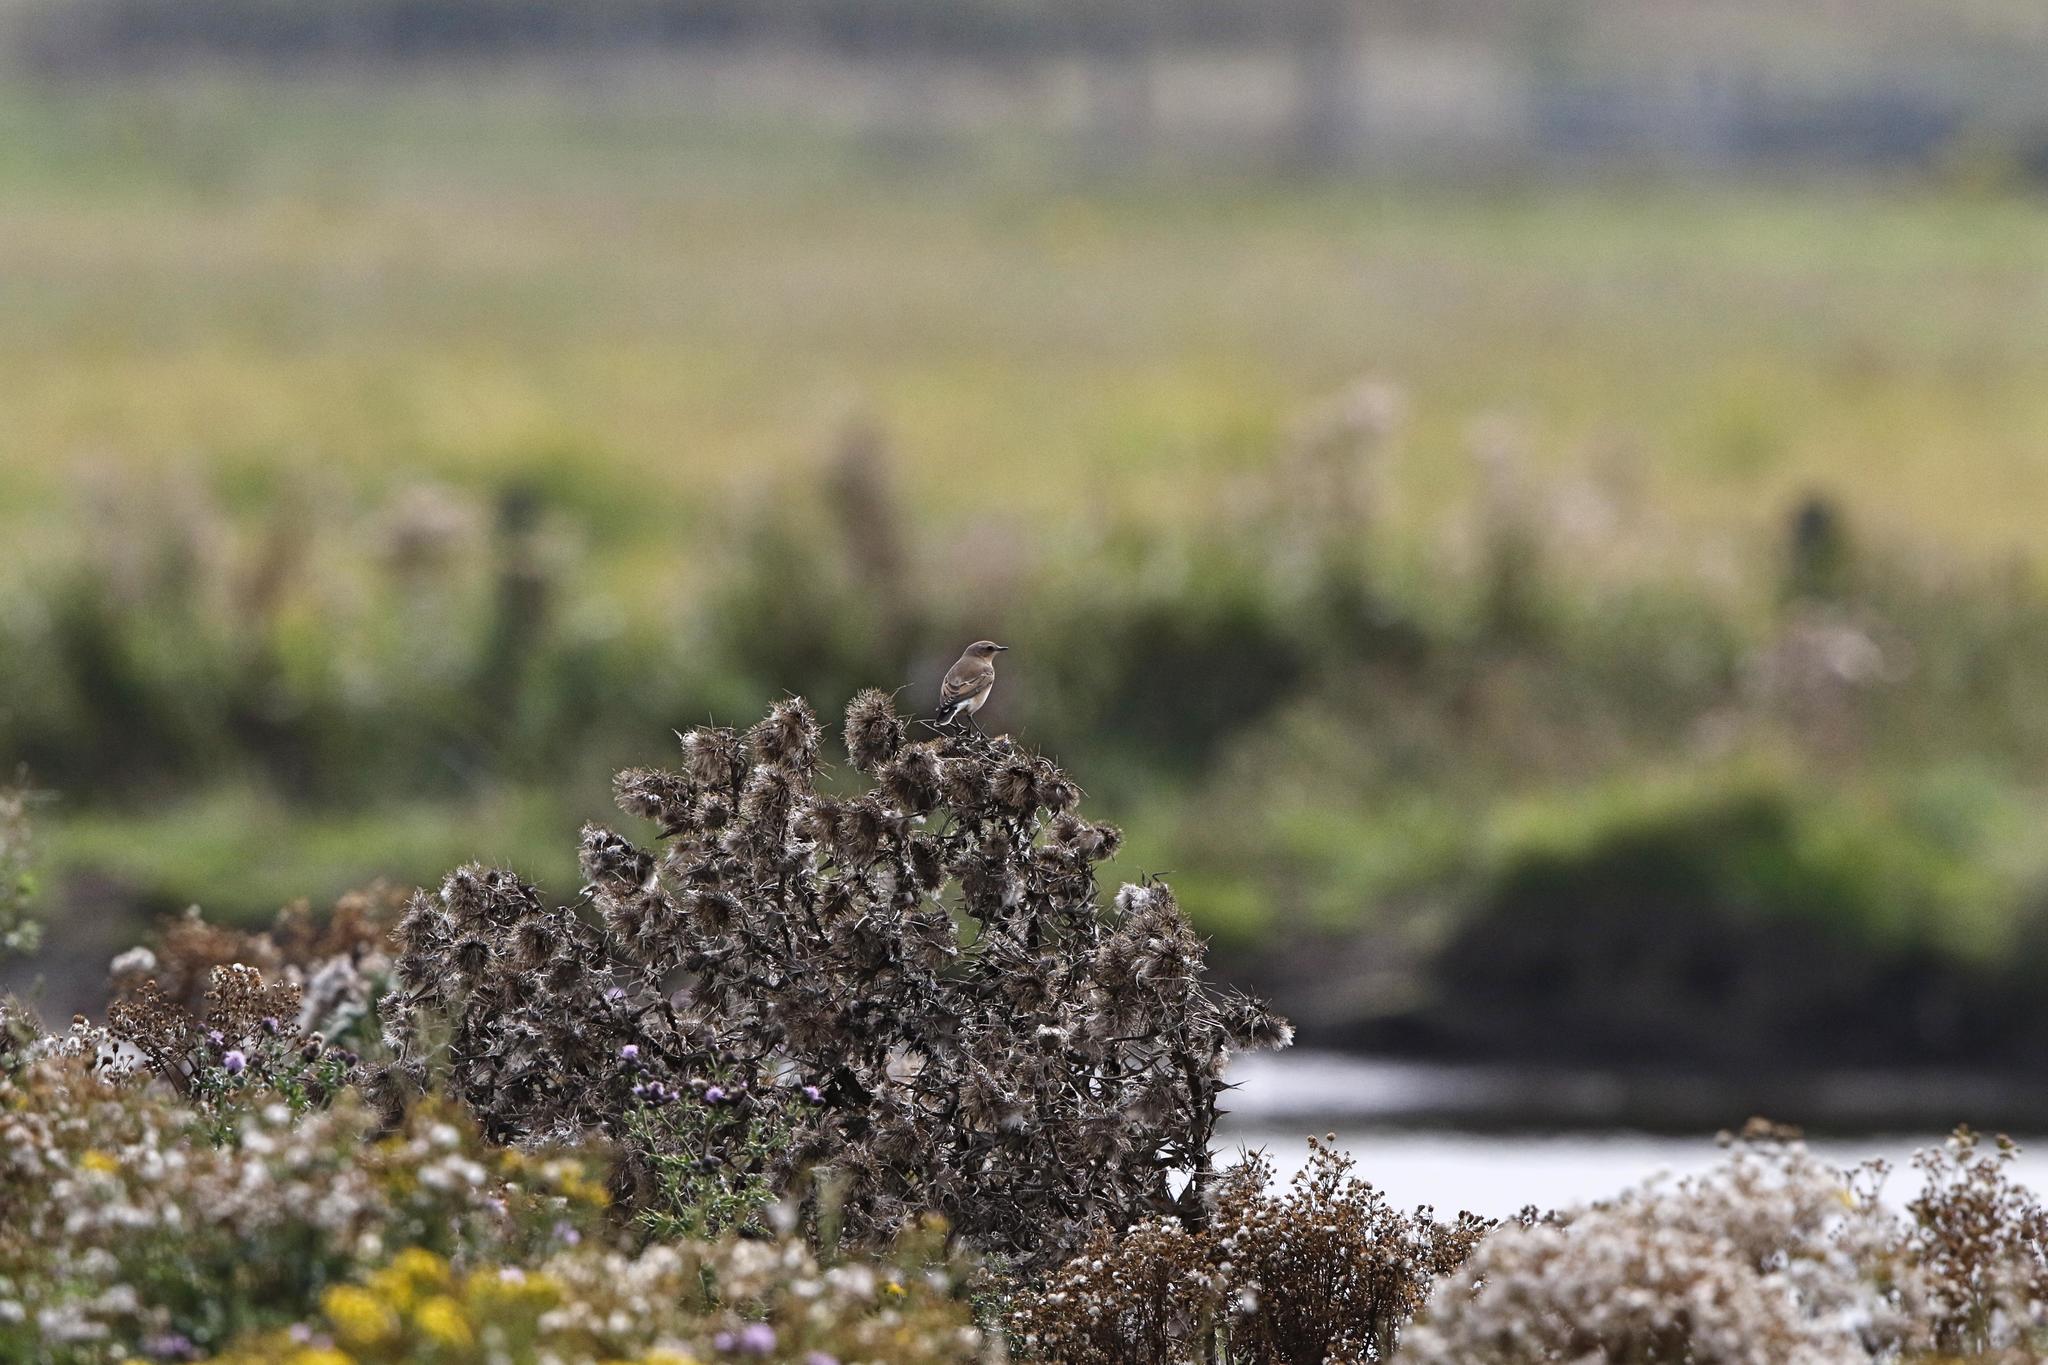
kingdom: Animalia
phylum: Chordata
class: Aves
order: Passeriformes
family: Muscicapidae
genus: Oenanthe
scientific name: Oenanthe oenanthe
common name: Northern wheatear
